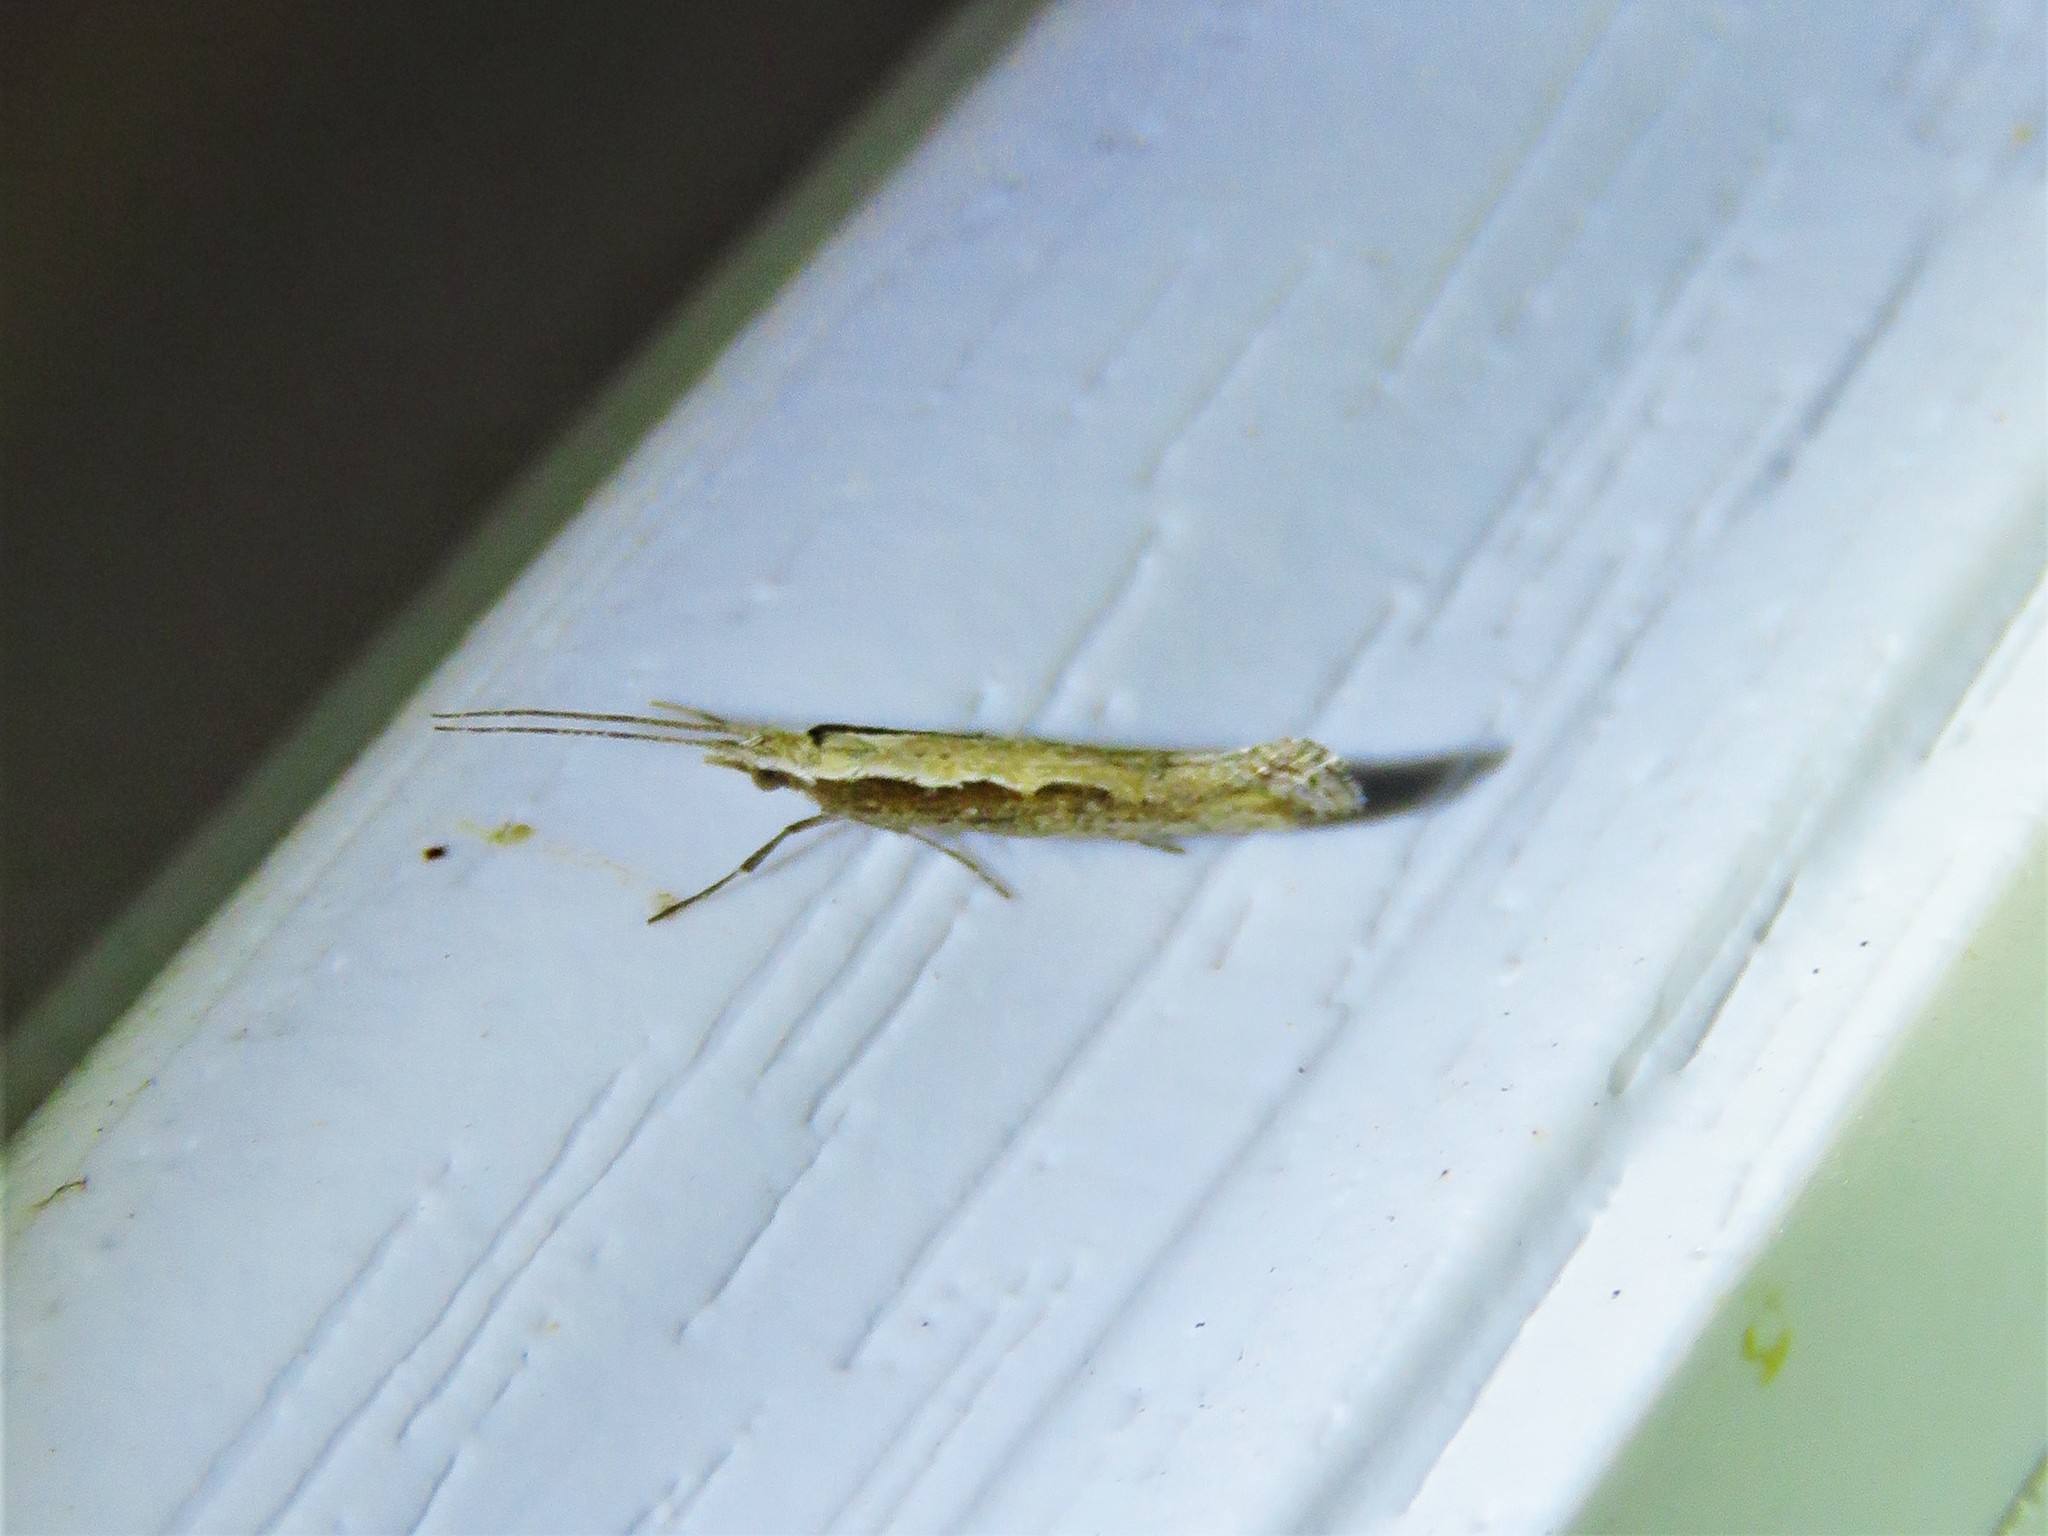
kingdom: Animalia
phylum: Arthropoda
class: Insecta
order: Lepidoptera
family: Plutellidae
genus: Plutella
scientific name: Plutella xylostella
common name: Diamond-back moth
